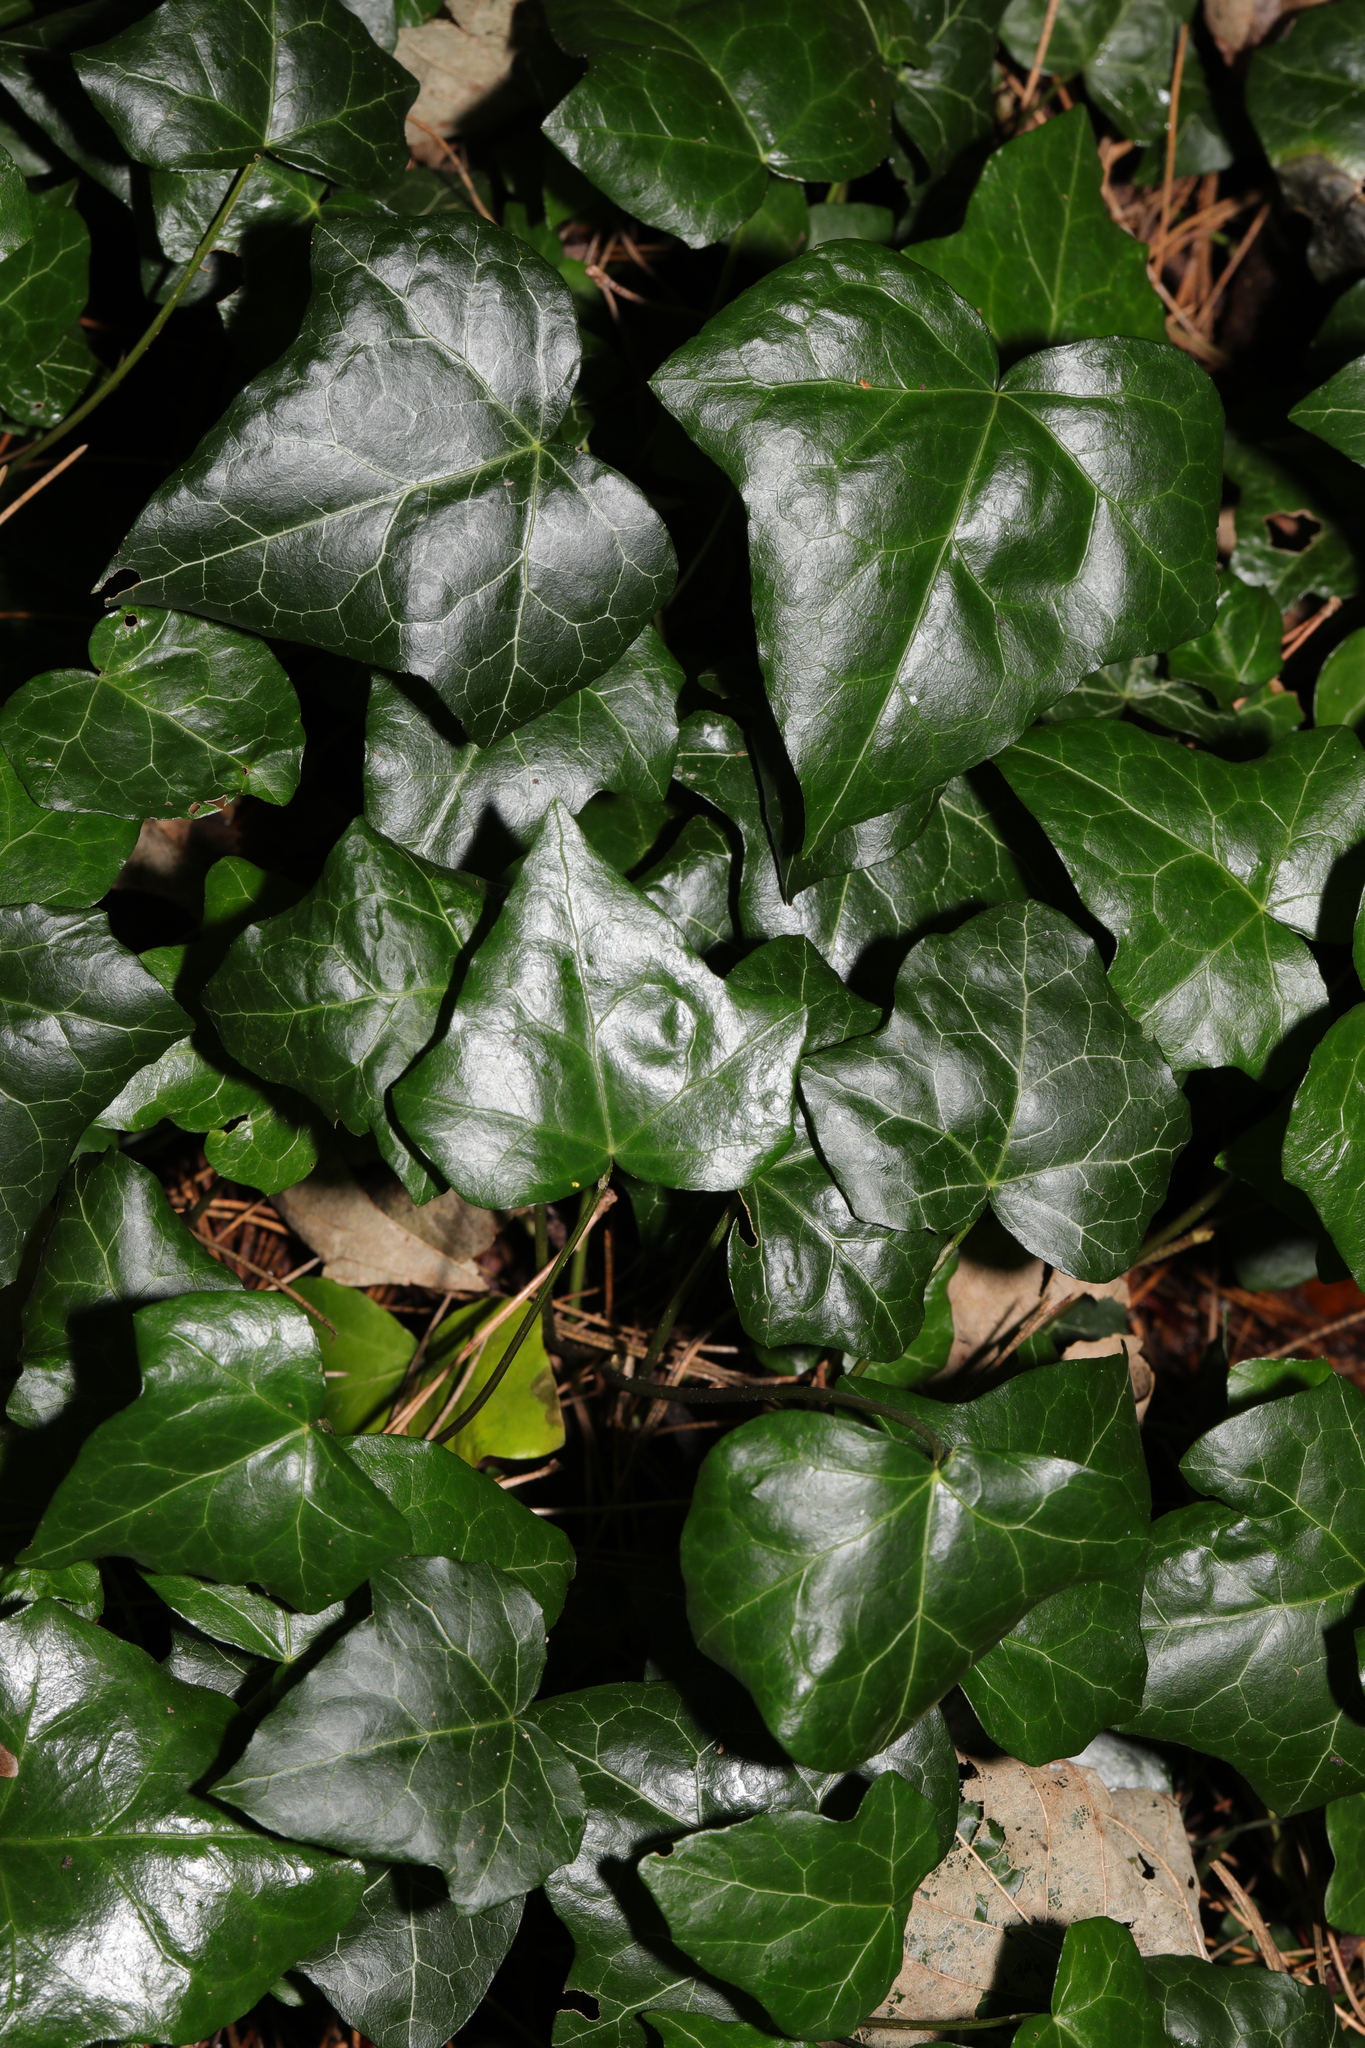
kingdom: Plantae
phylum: Tracheophyta
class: Magnoliopsida
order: Apiales
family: Araliaceae
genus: Hedera
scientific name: Hedera helix
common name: Ivy
